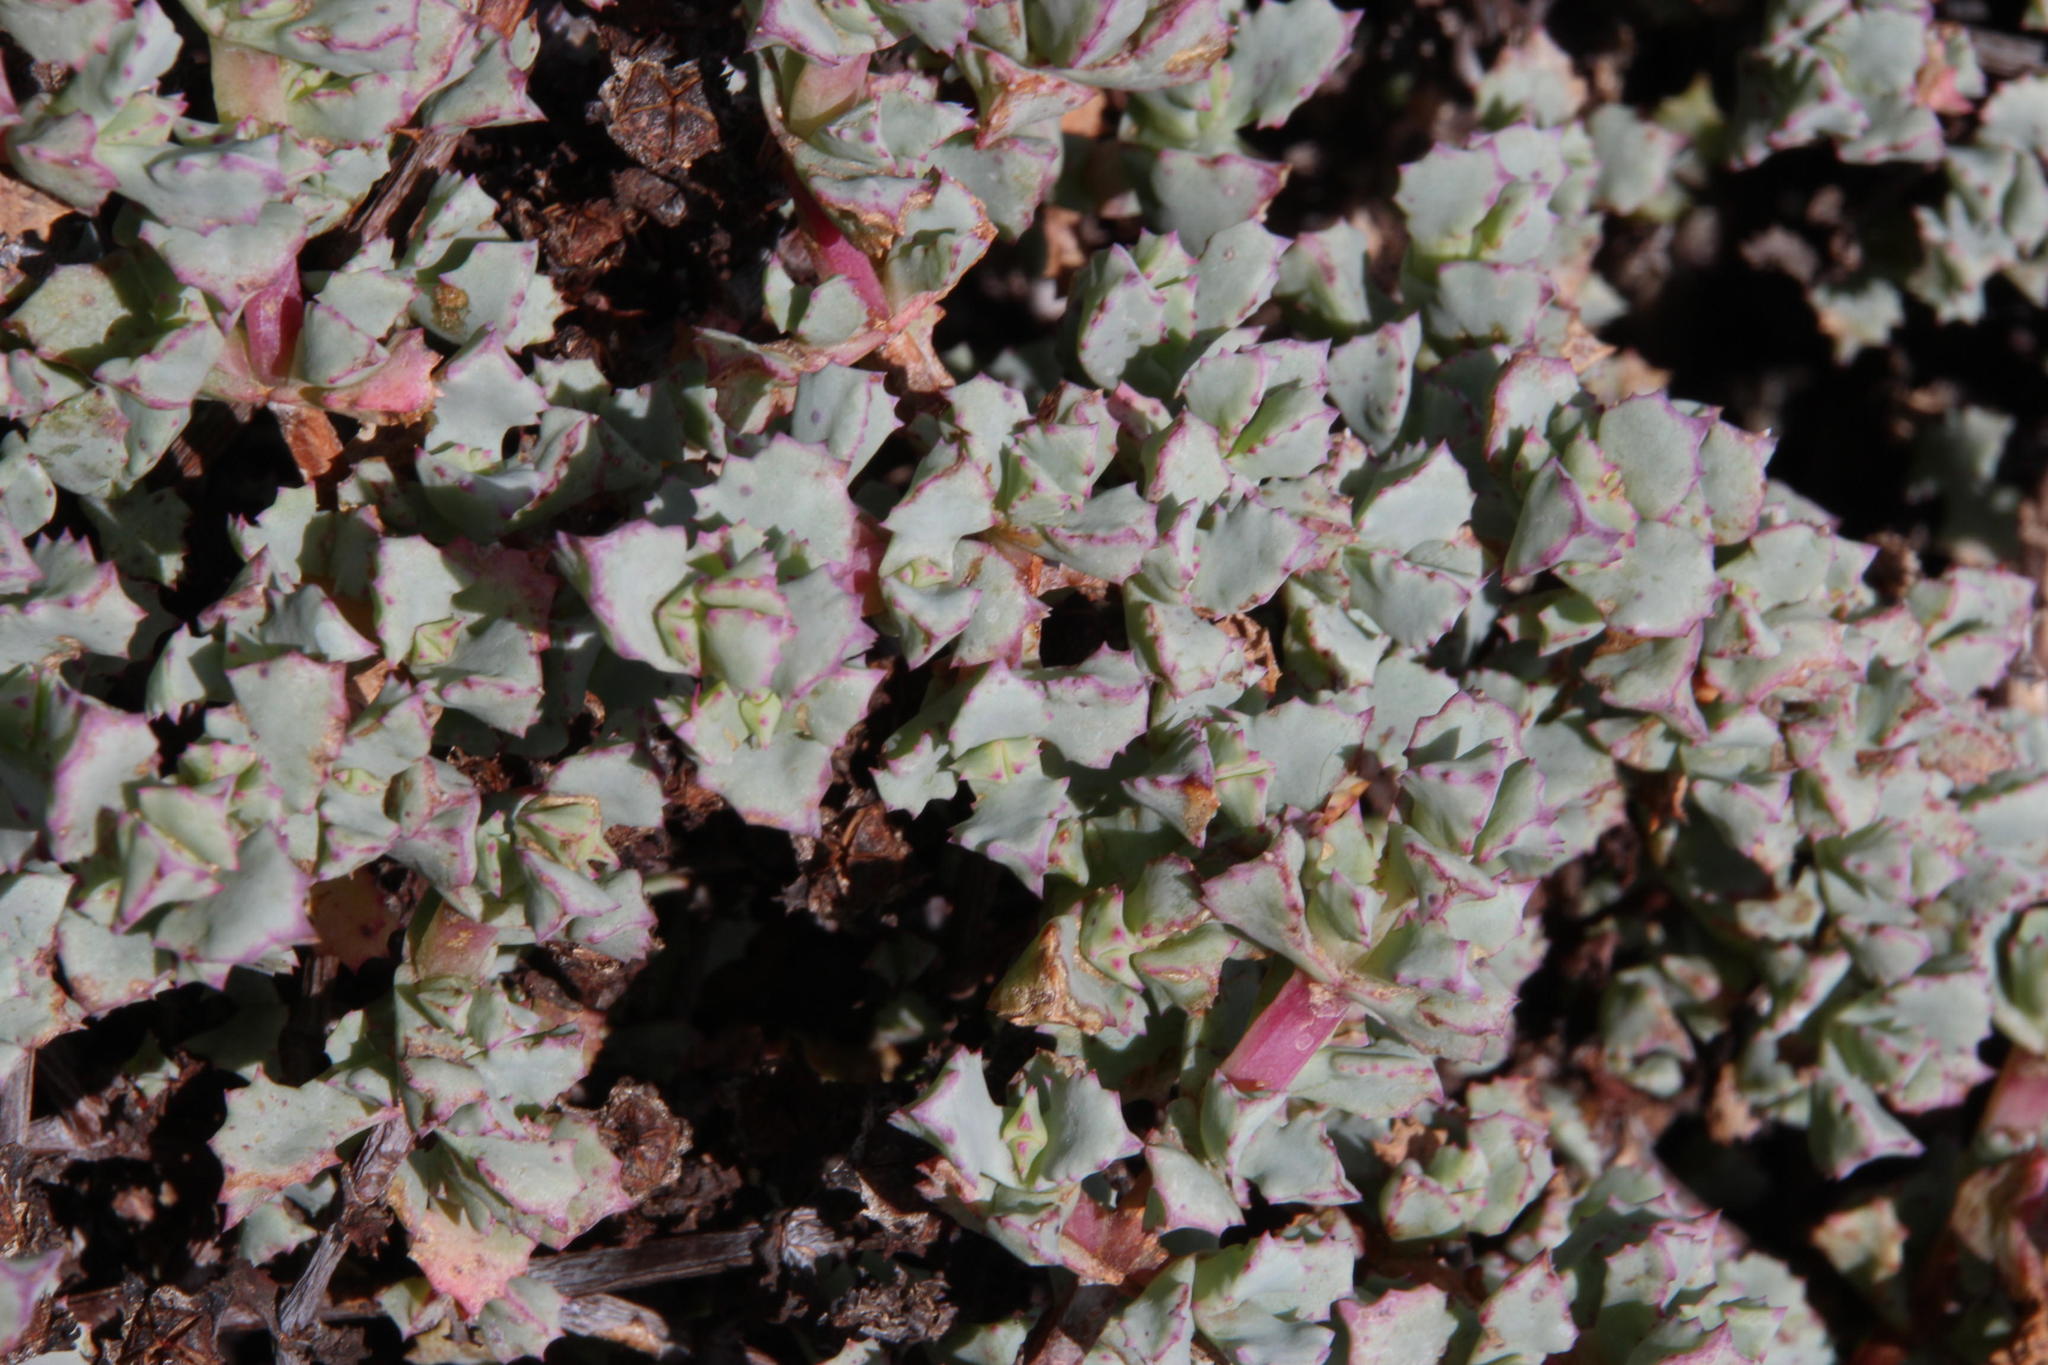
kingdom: Plantae
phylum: Tracheophyta
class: Magnoliopsida
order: Caryophyllales
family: Aizoaceae
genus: Oscularia
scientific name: Oscularia deltoides
